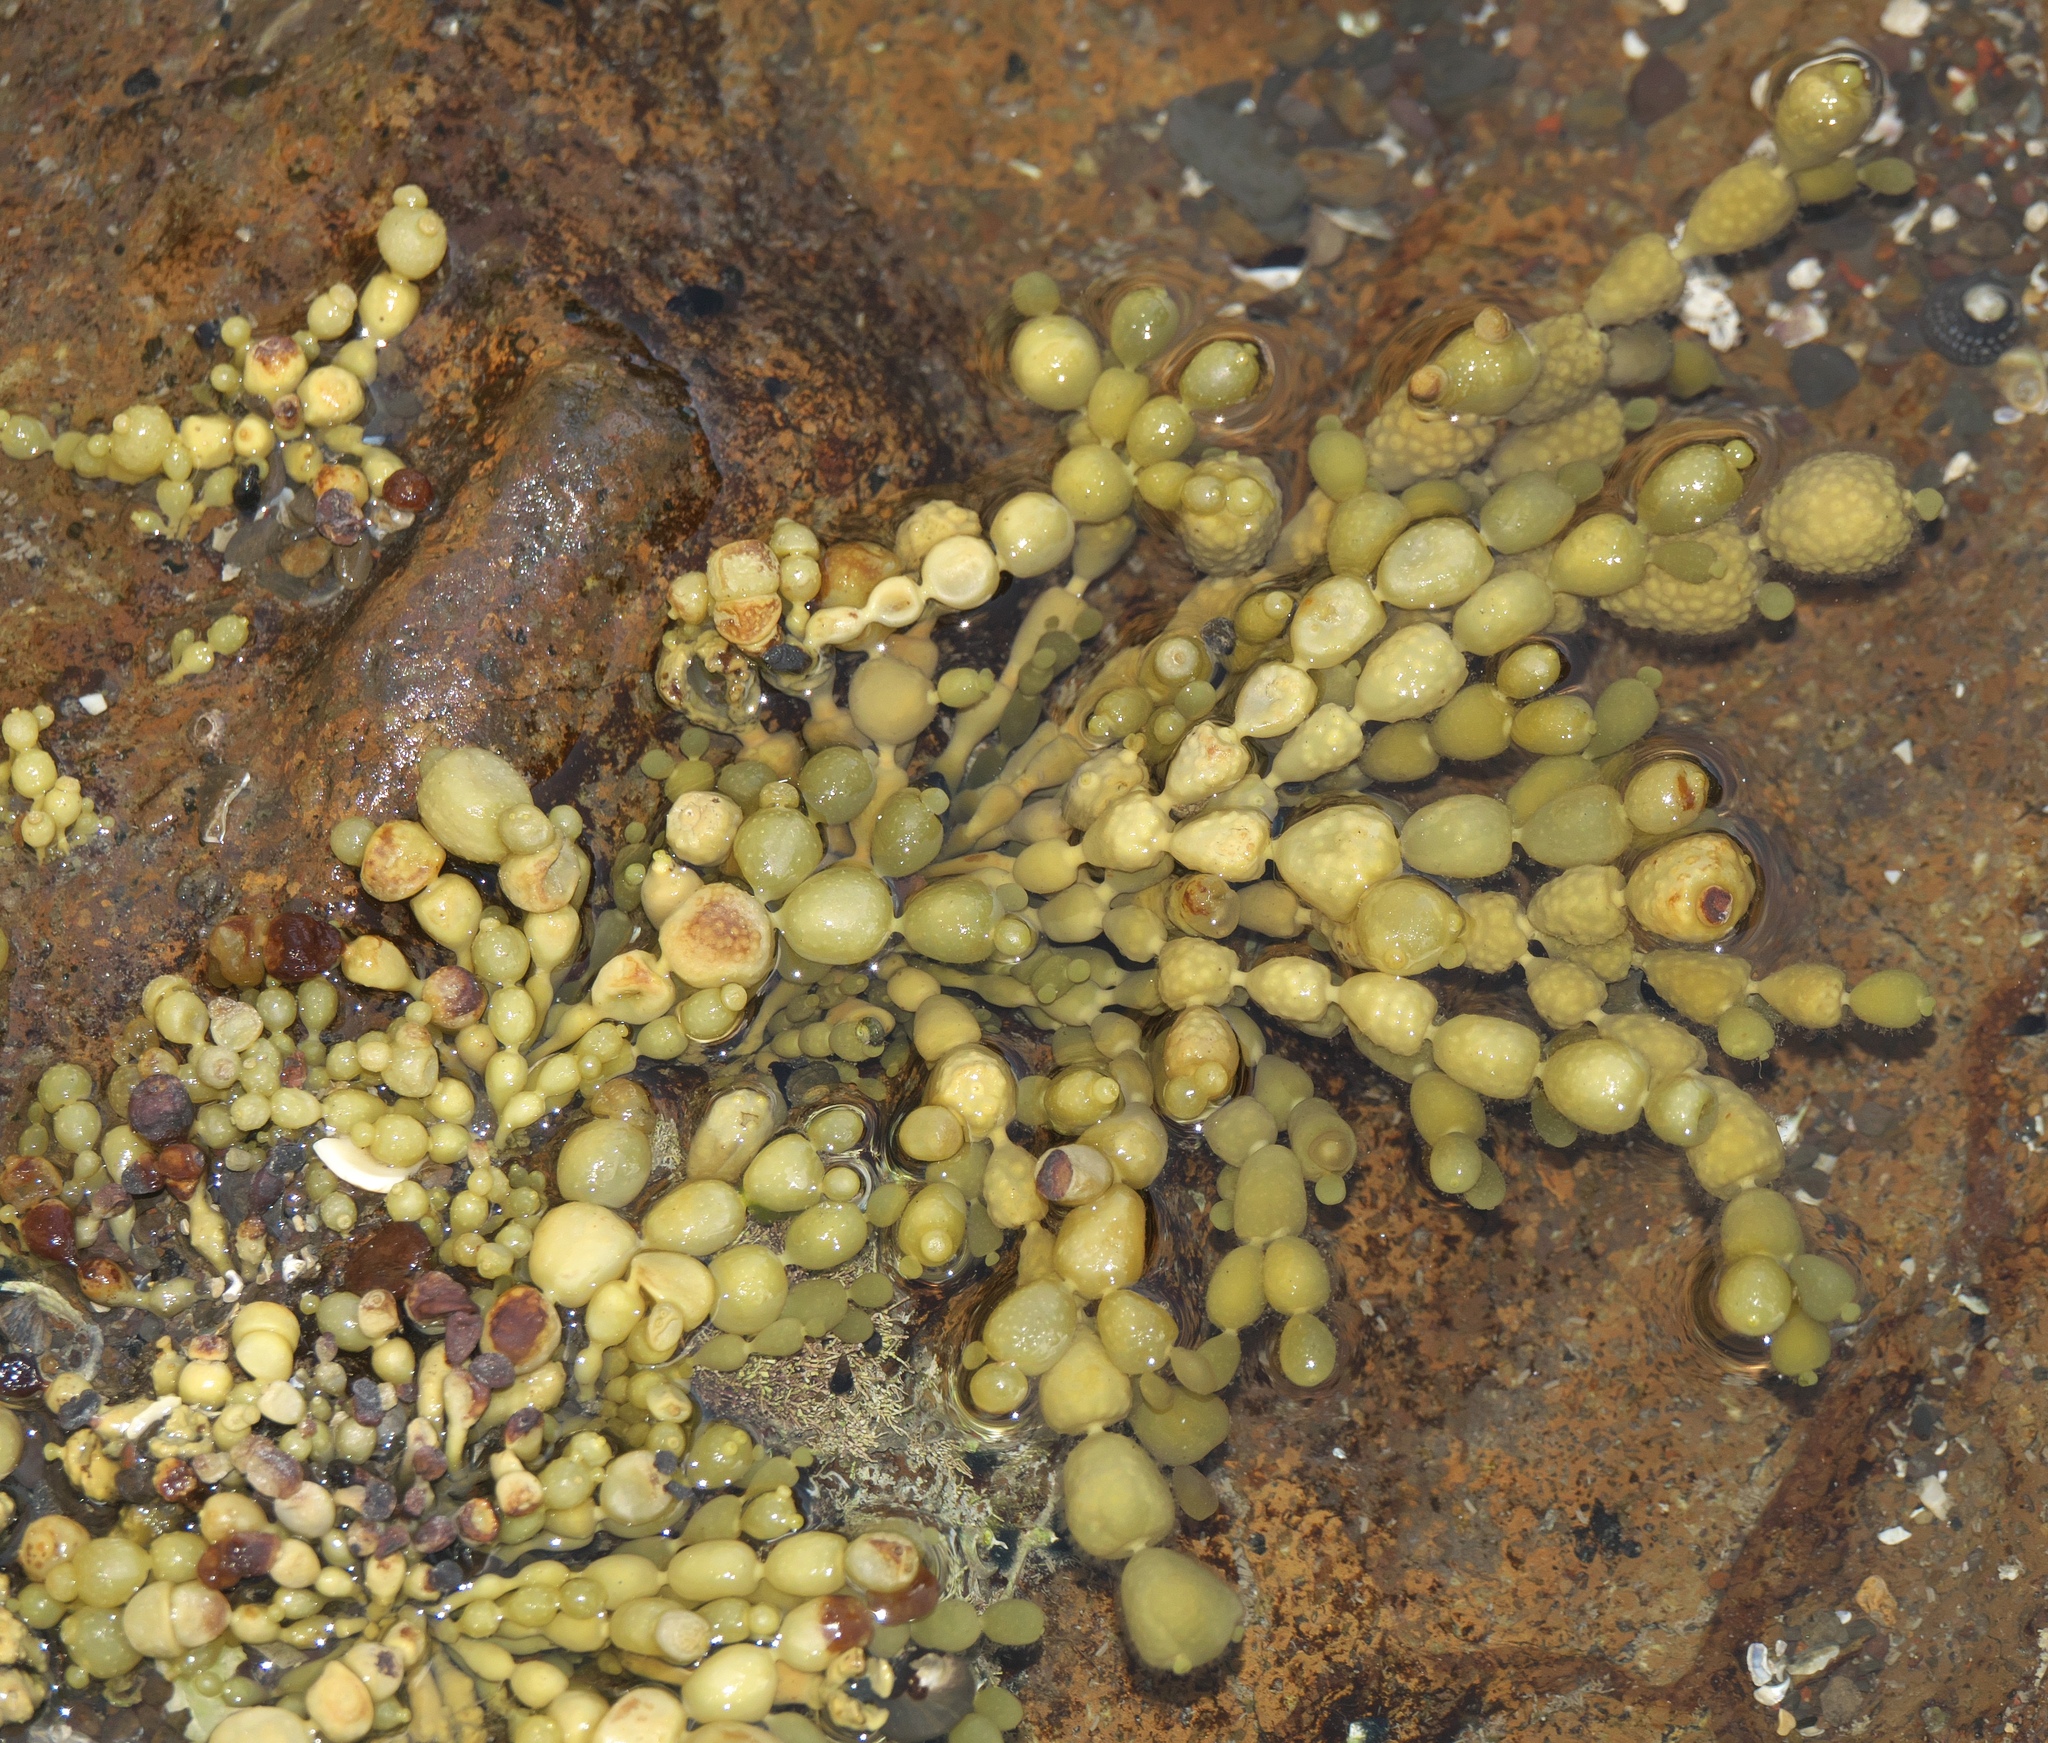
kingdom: Chromista
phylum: Ochrophyta
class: Phaeophyceae
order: Fucales
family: Hormosiraceae
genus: Hormosira
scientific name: Hormosira banksii
